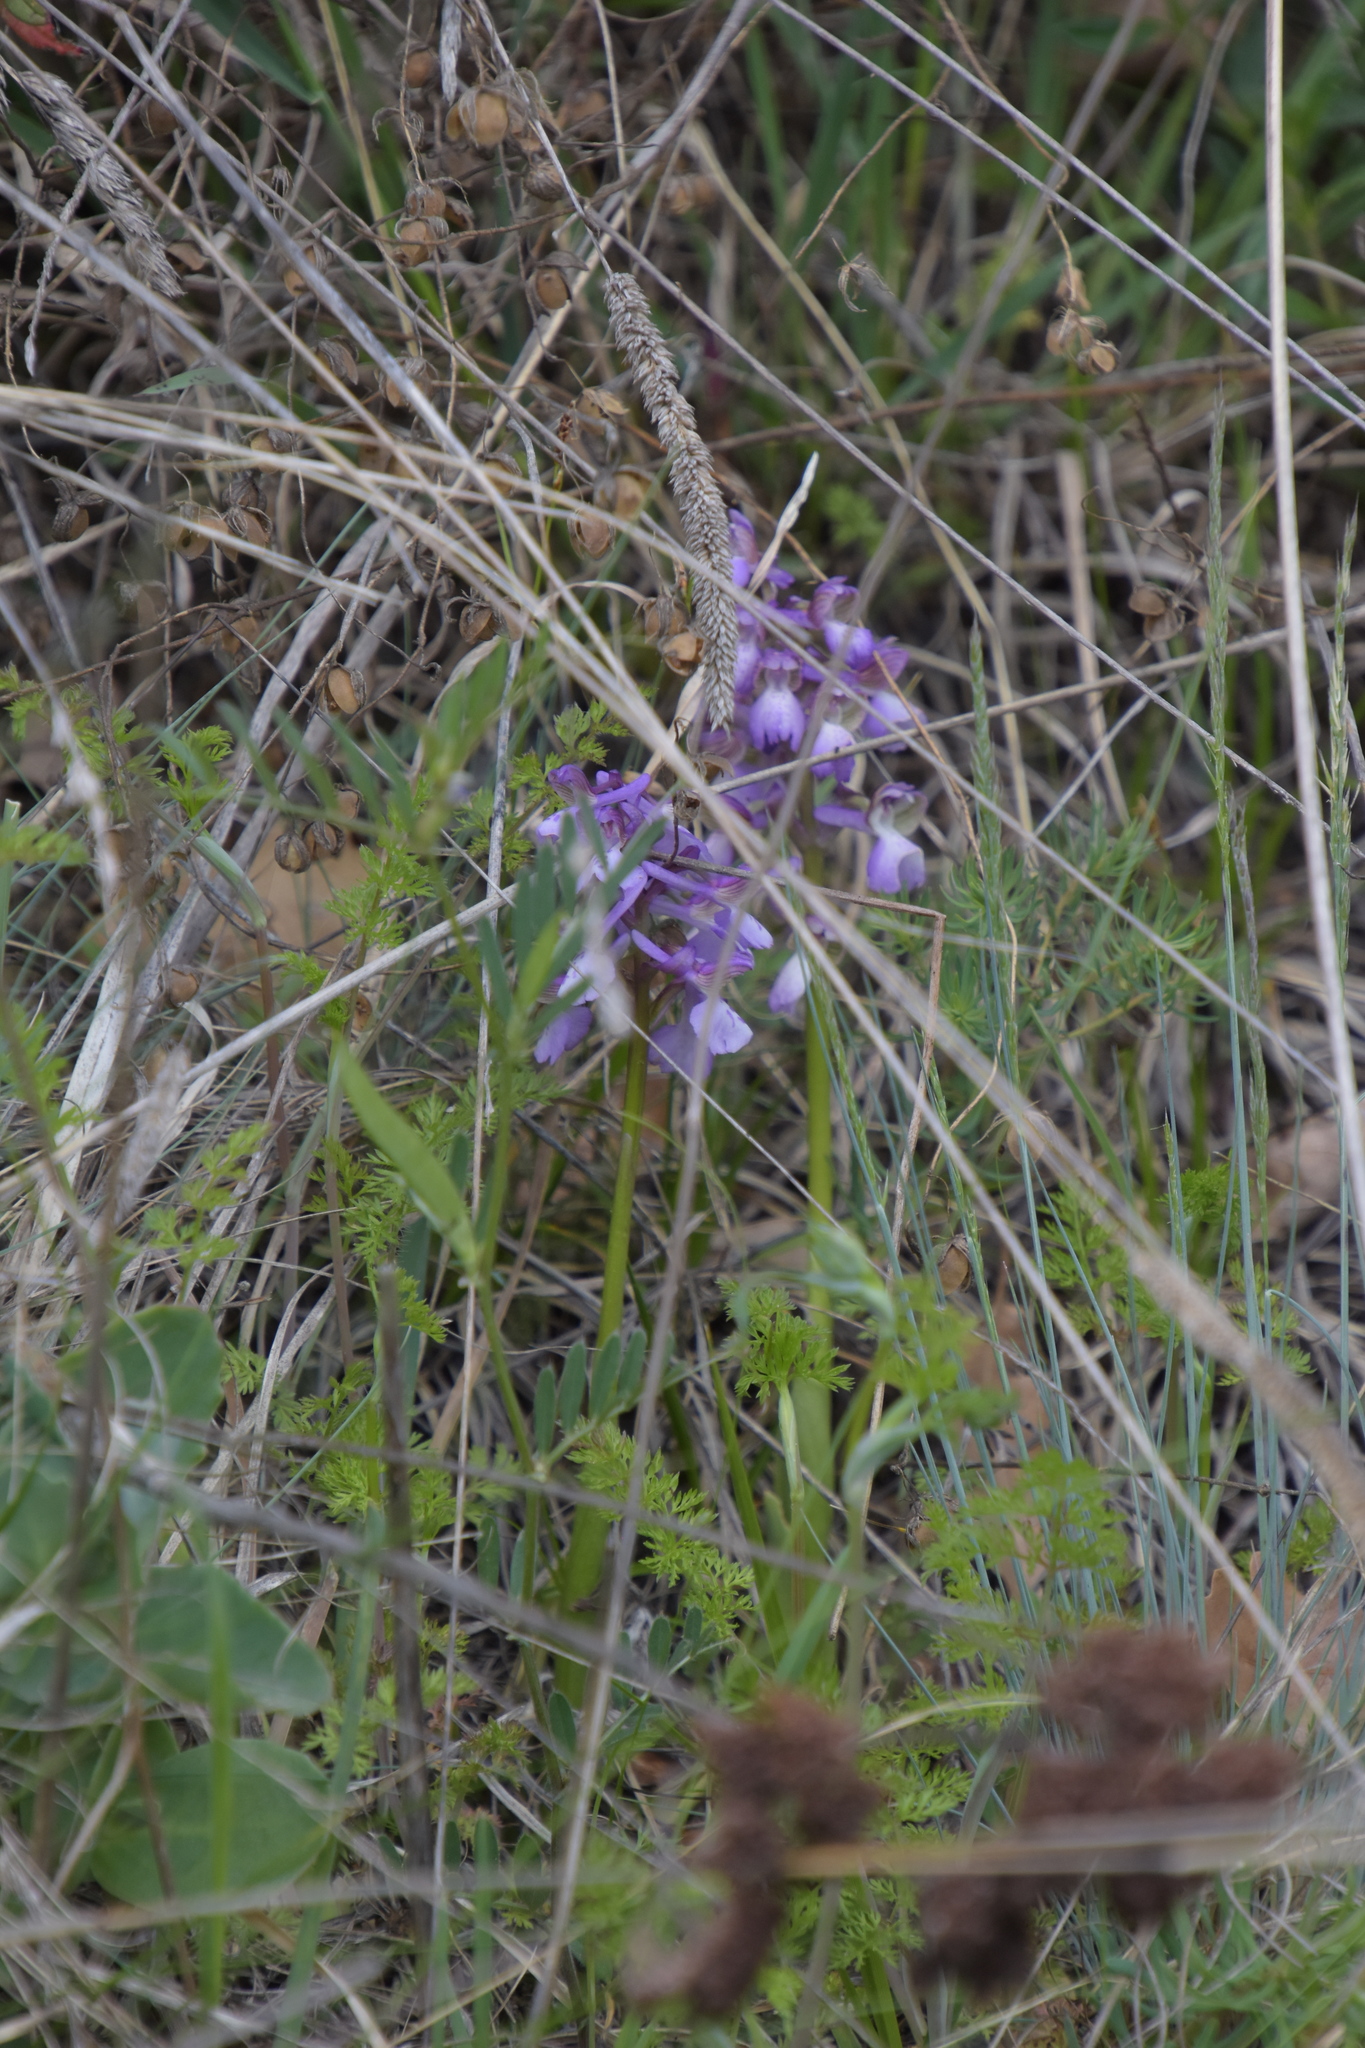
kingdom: Plantae
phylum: Tracheophyta
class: Liliopsida
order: Asparagales
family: Orchidaceae
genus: Anacamptis
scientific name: Anacamptis morio
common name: Green-winged orchid
